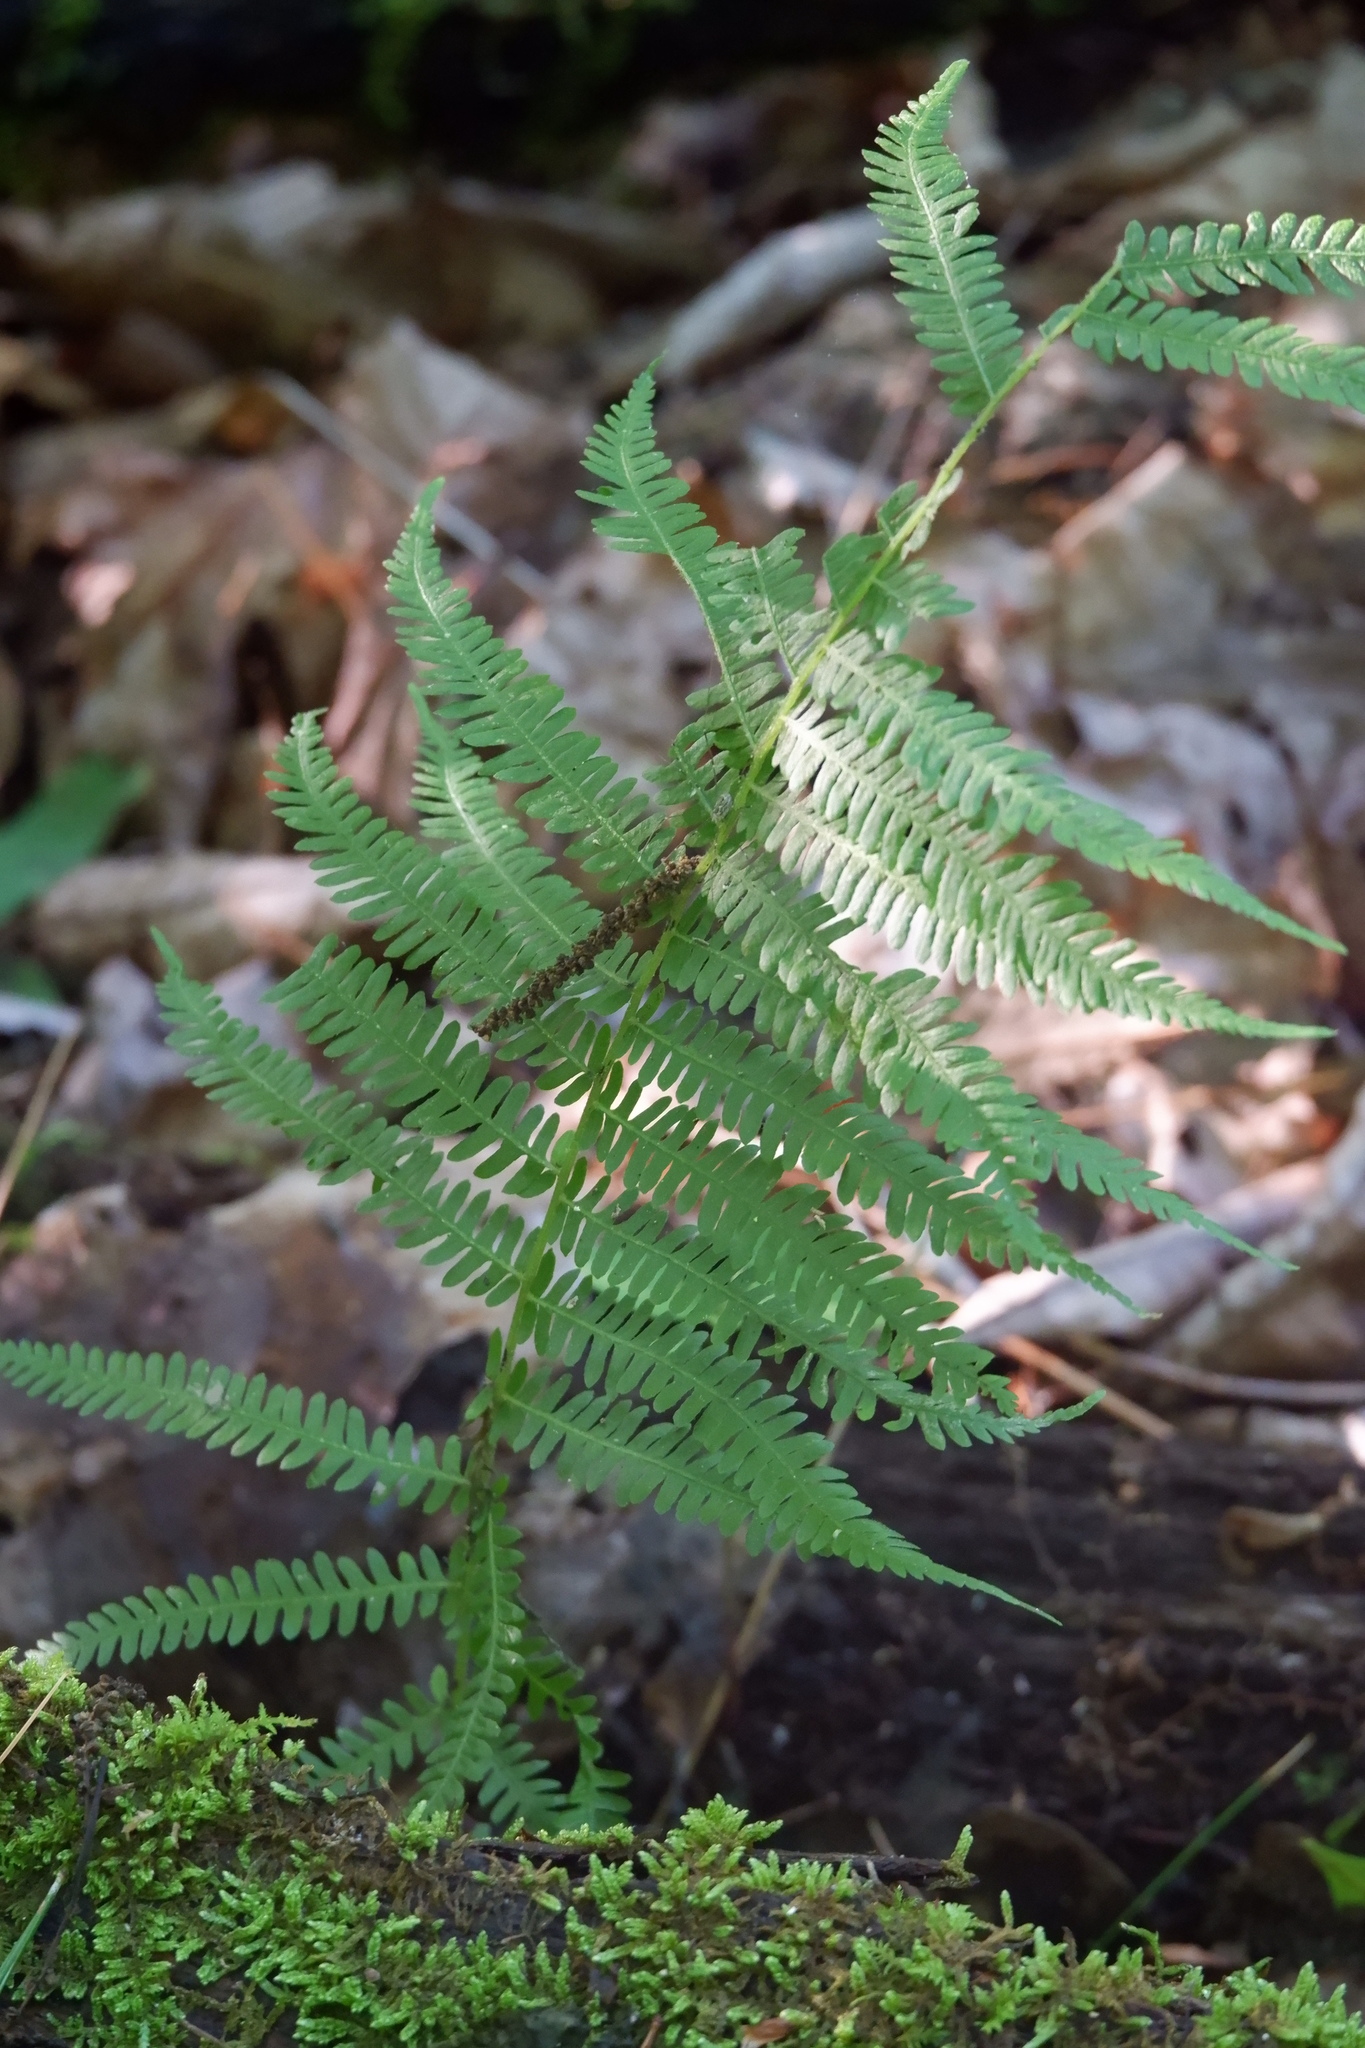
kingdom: Plantae
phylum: Tracheophyta
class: Polypodiopsida
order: Polypodiales
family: Athyriaceae
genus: Deparia
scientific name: Deparia acrostichoides
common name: Silver false spleenwort
